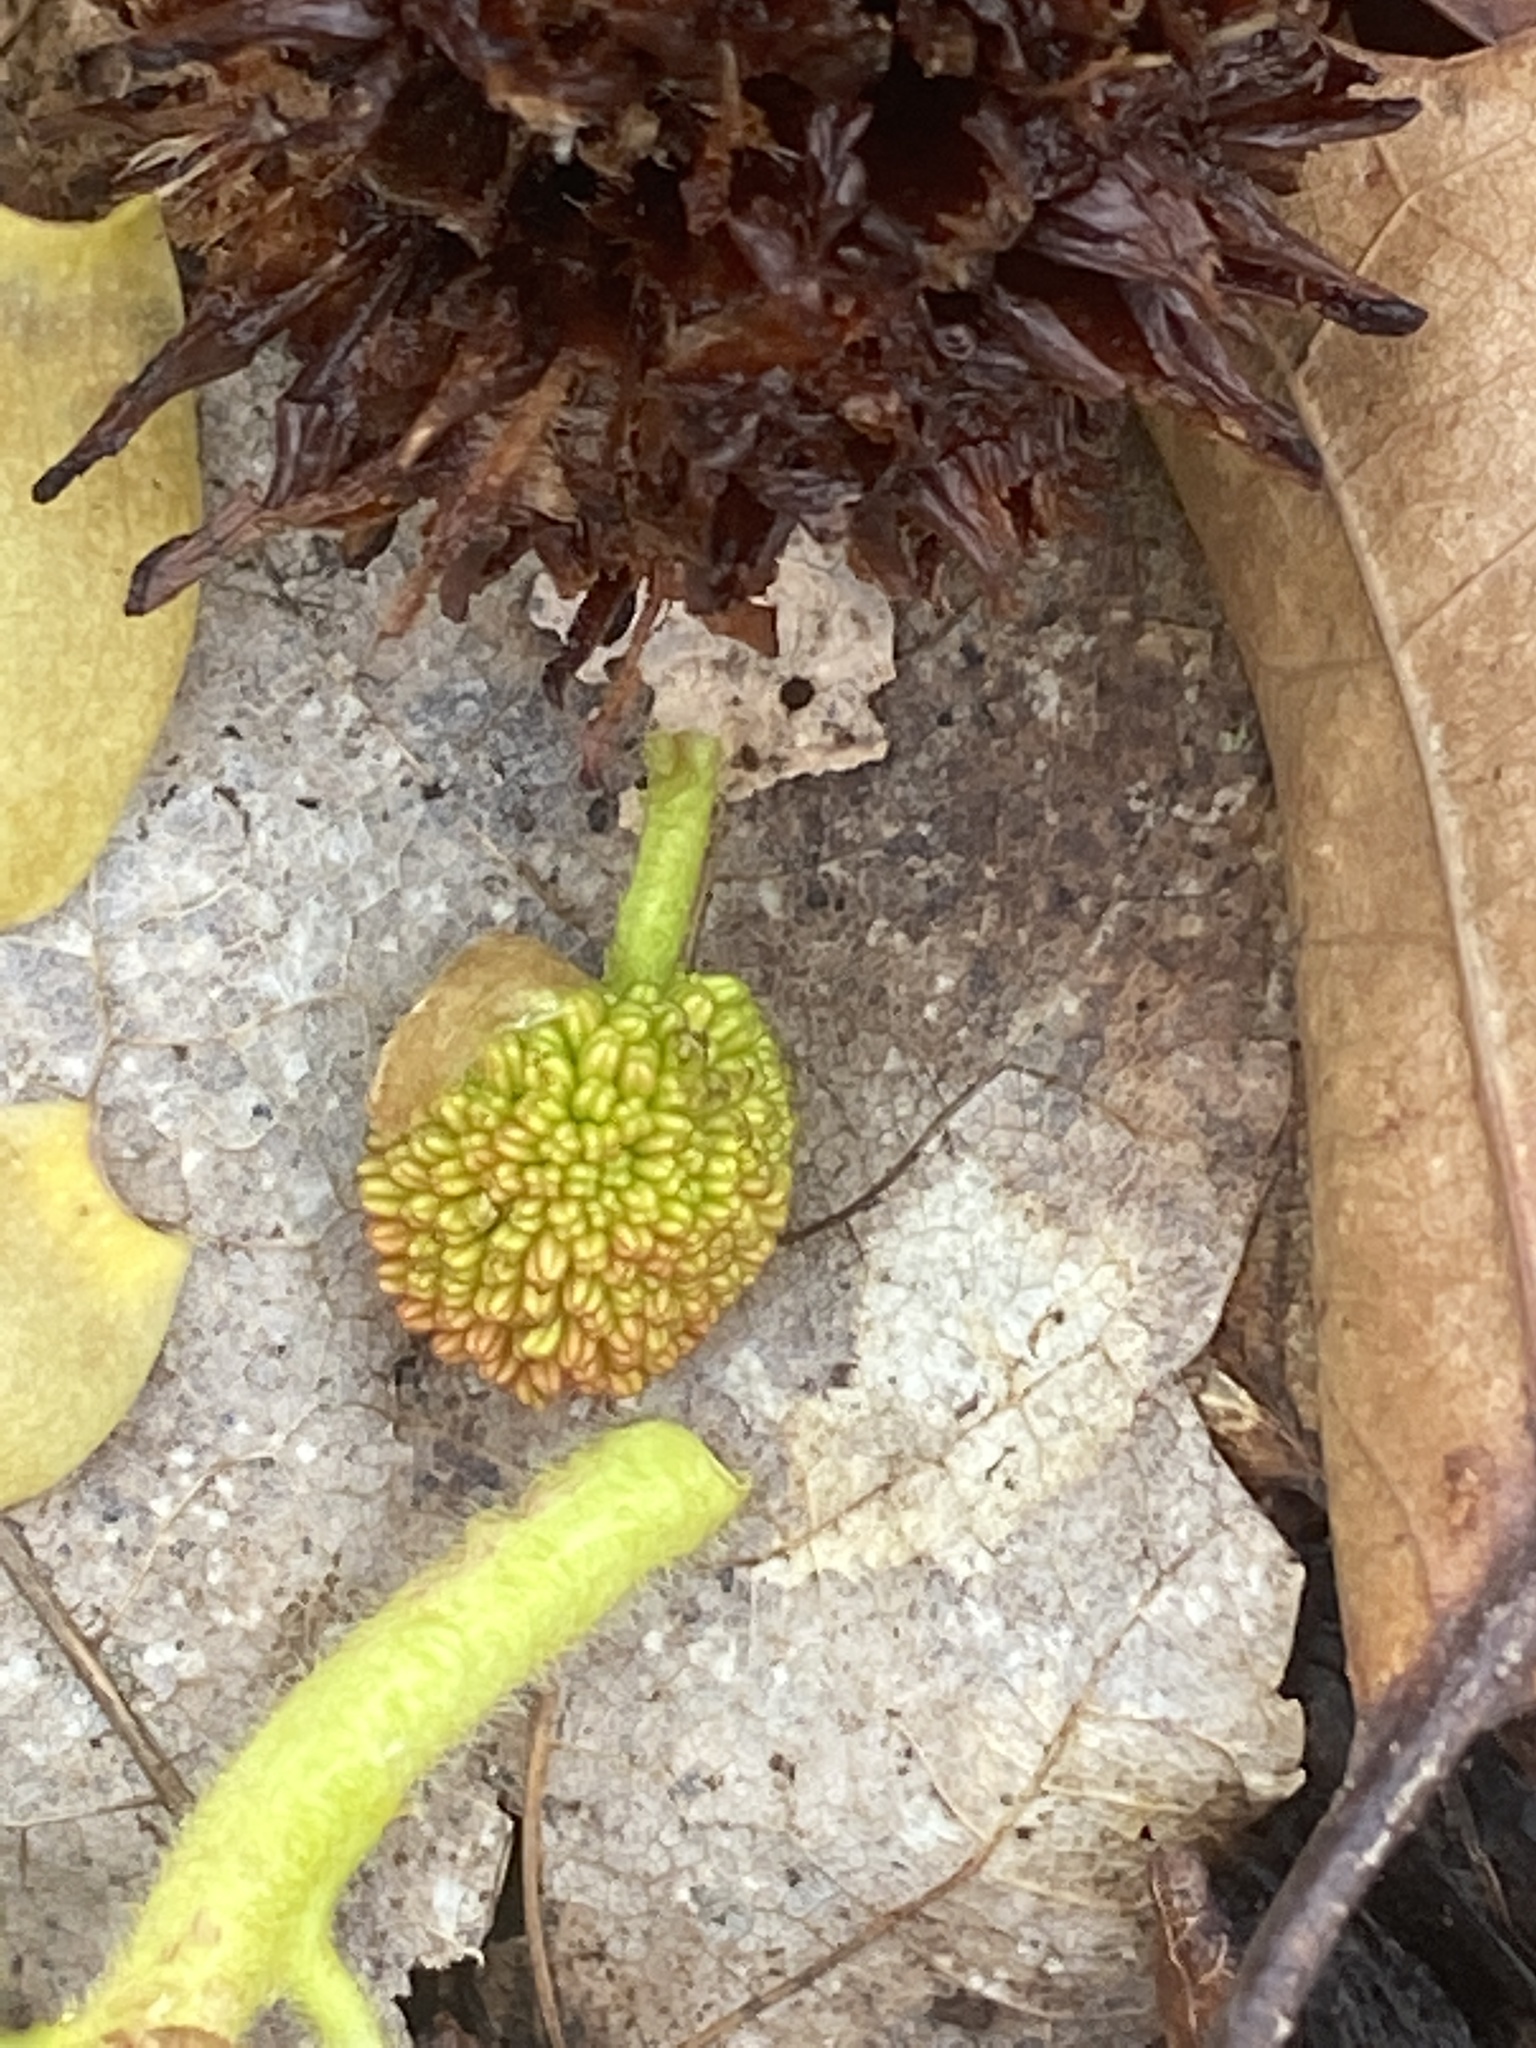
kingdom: Plantae
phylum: Tracheophyta
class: Magnoliopsida
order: Saxifragales
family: Altingiaceae
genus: Liquidambar
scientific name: Liquidambar styraciflua
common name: Sweet gum
